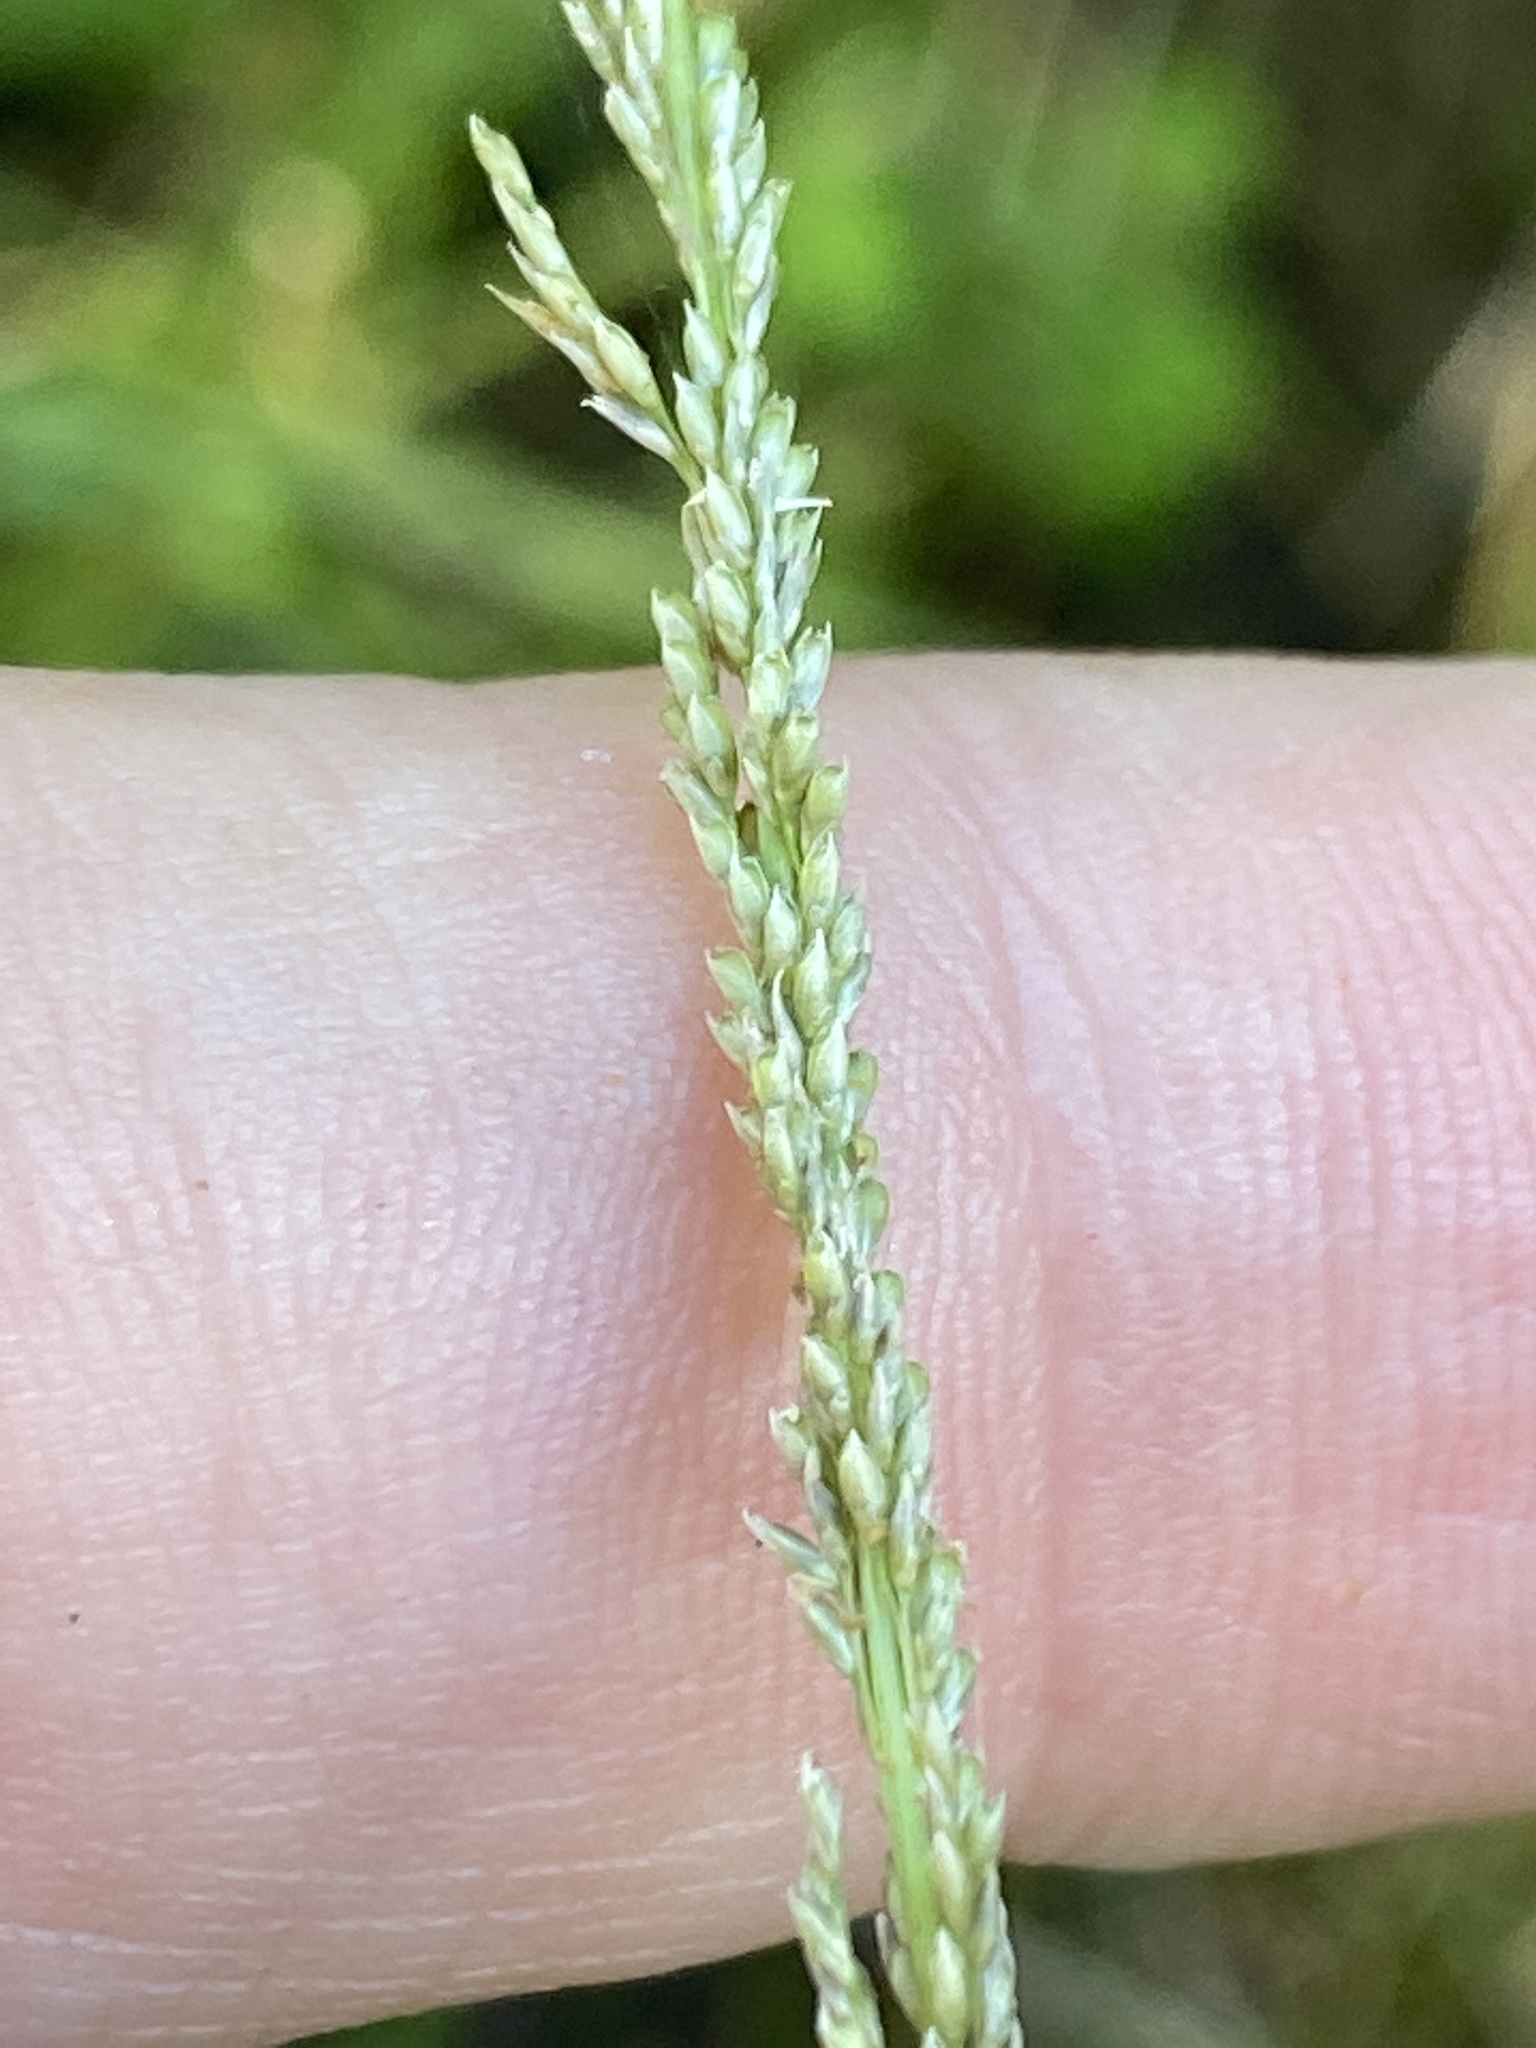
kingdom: Plantae
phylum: Tracheophyta
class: Liliopsida
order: Poales
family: Poaceae
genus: Sporobolus
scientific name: Sporobolus indicus
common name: Smut grass
